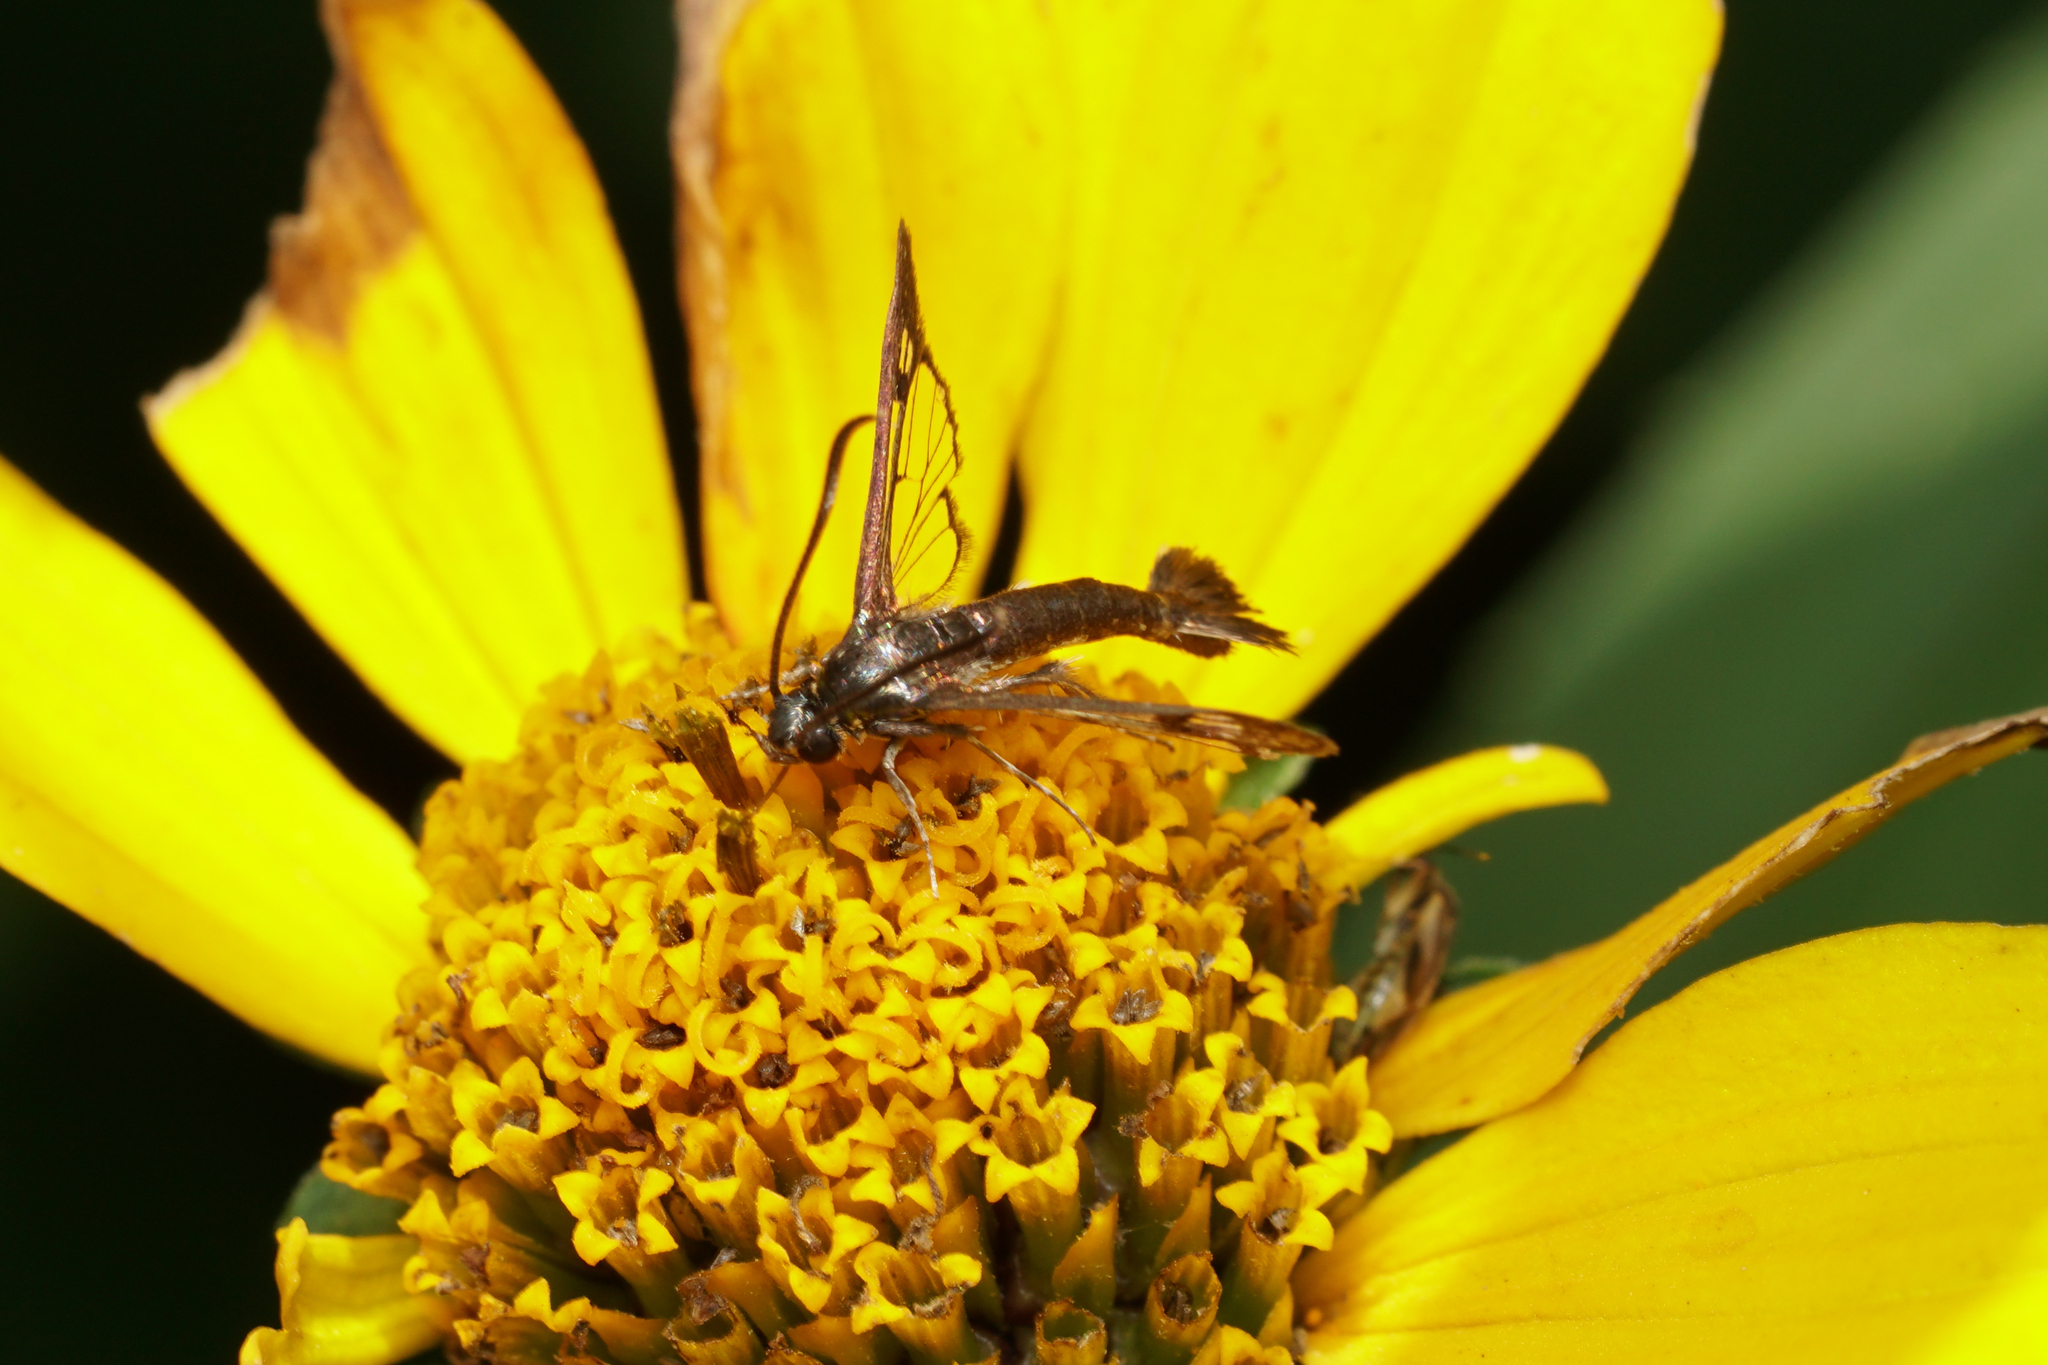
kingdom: Animalia
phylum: Arthropoda
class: Insecta
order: Lepidoptera
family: Sesiidae
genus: Carmenta
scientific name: Carmenta ithacae
